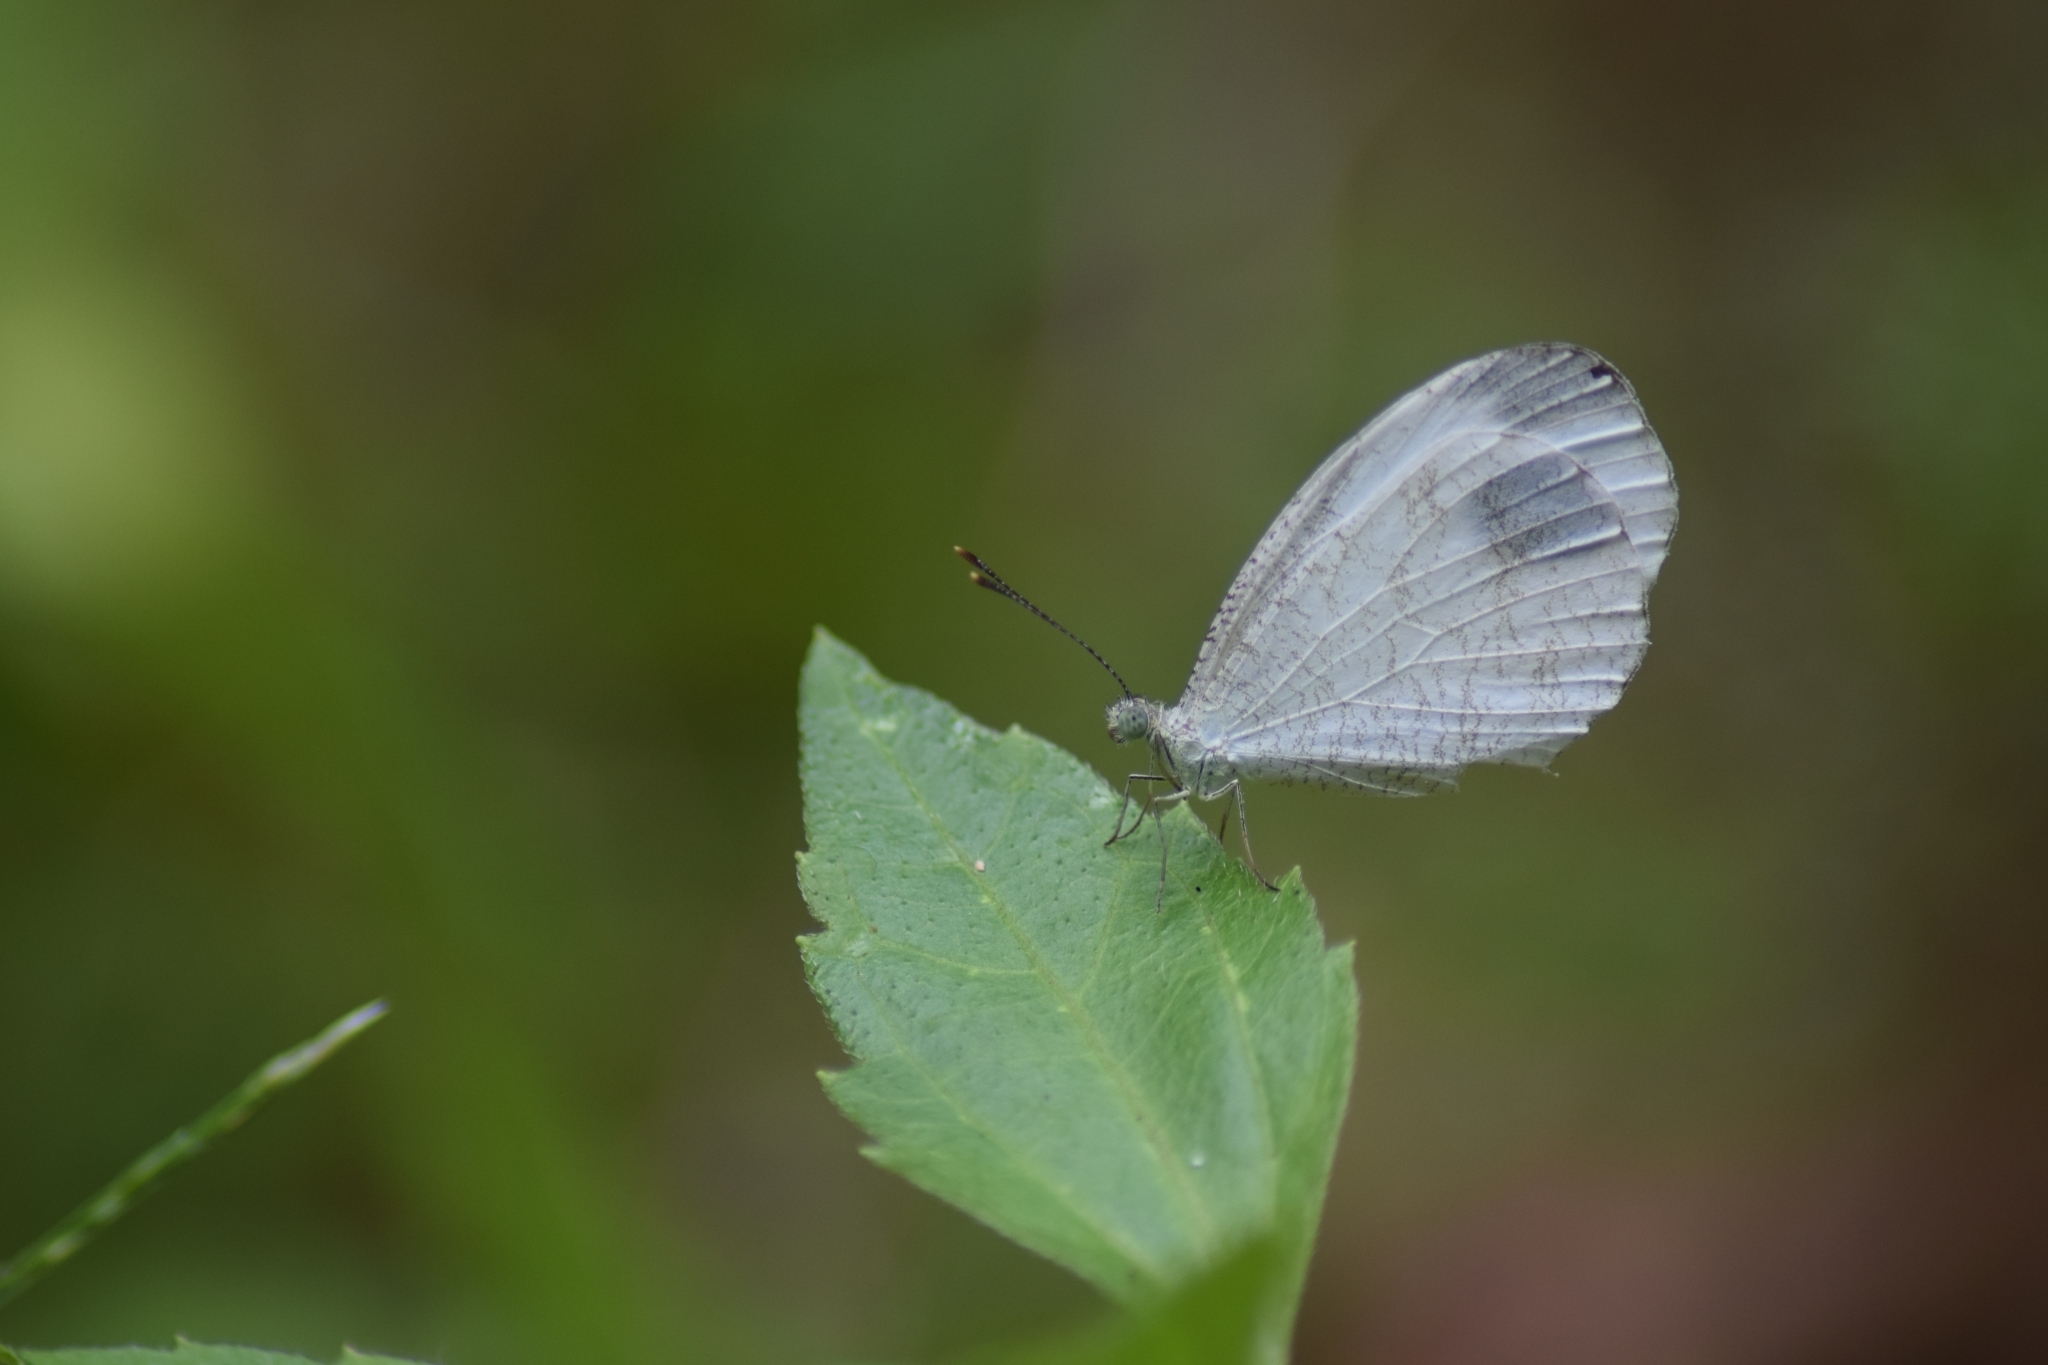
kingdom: Animalia
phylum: Arthropoda
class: Insecta
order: Lepidoptera
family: Pieridae
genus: Leptosia
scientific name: Leptosia nina
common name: Psyche
